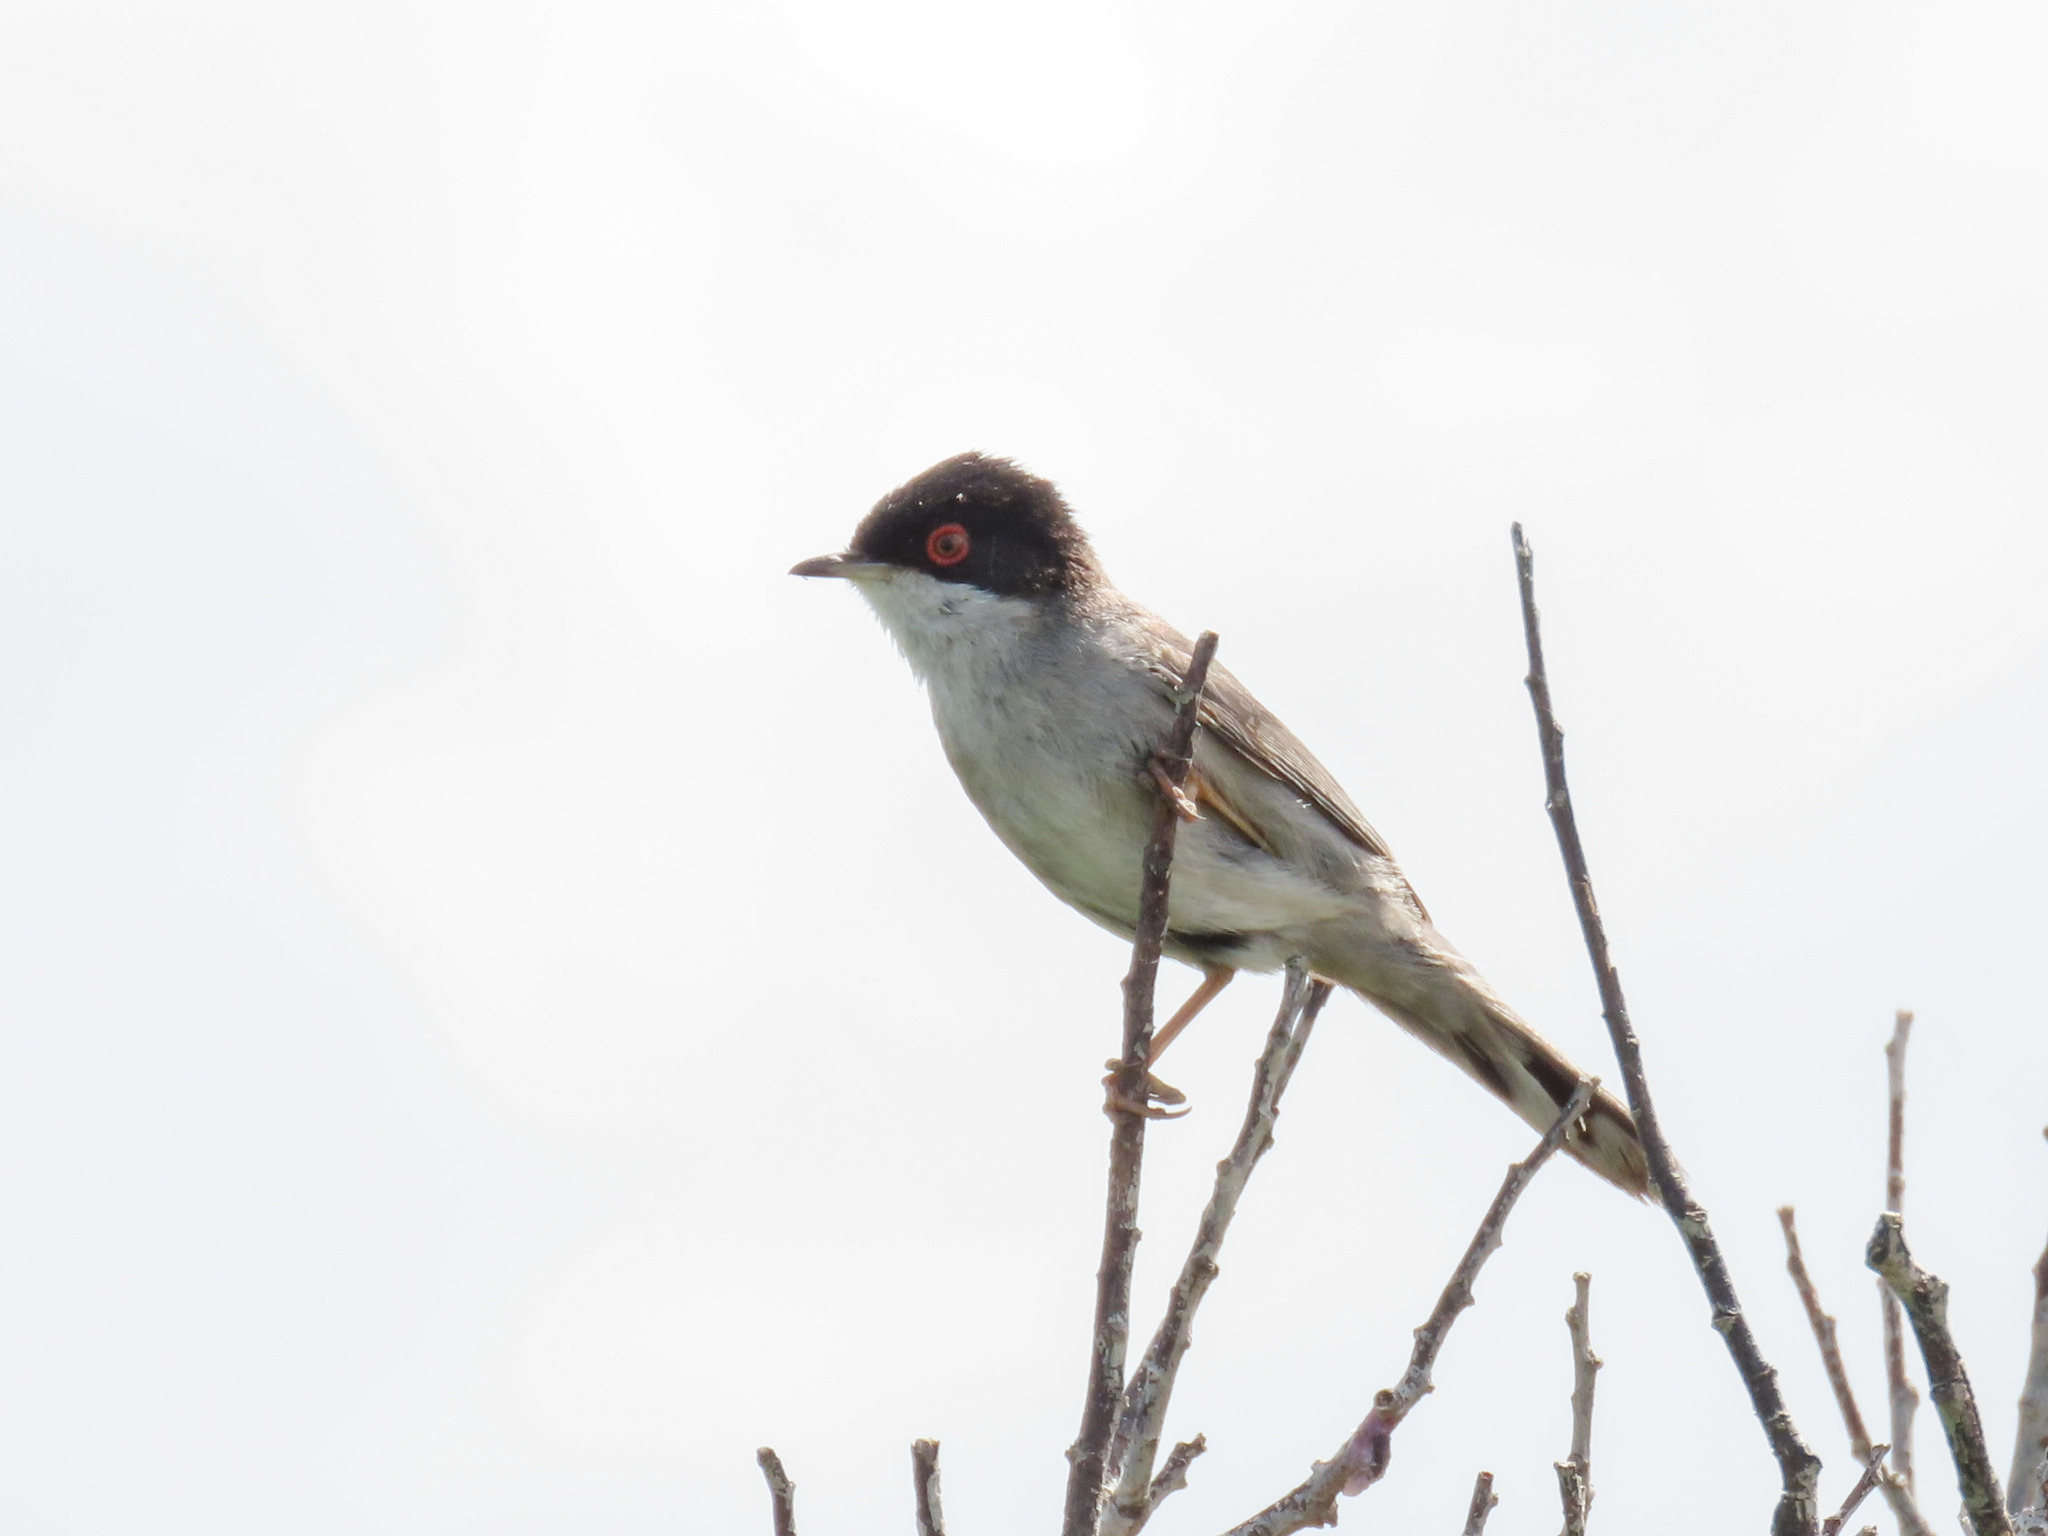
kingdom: Animalia
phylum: Chordata
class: Aves
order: Passeriformes
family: Sylviidae
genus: Curruca
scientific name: Curruca melanocephala
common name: Sardinian warbler
